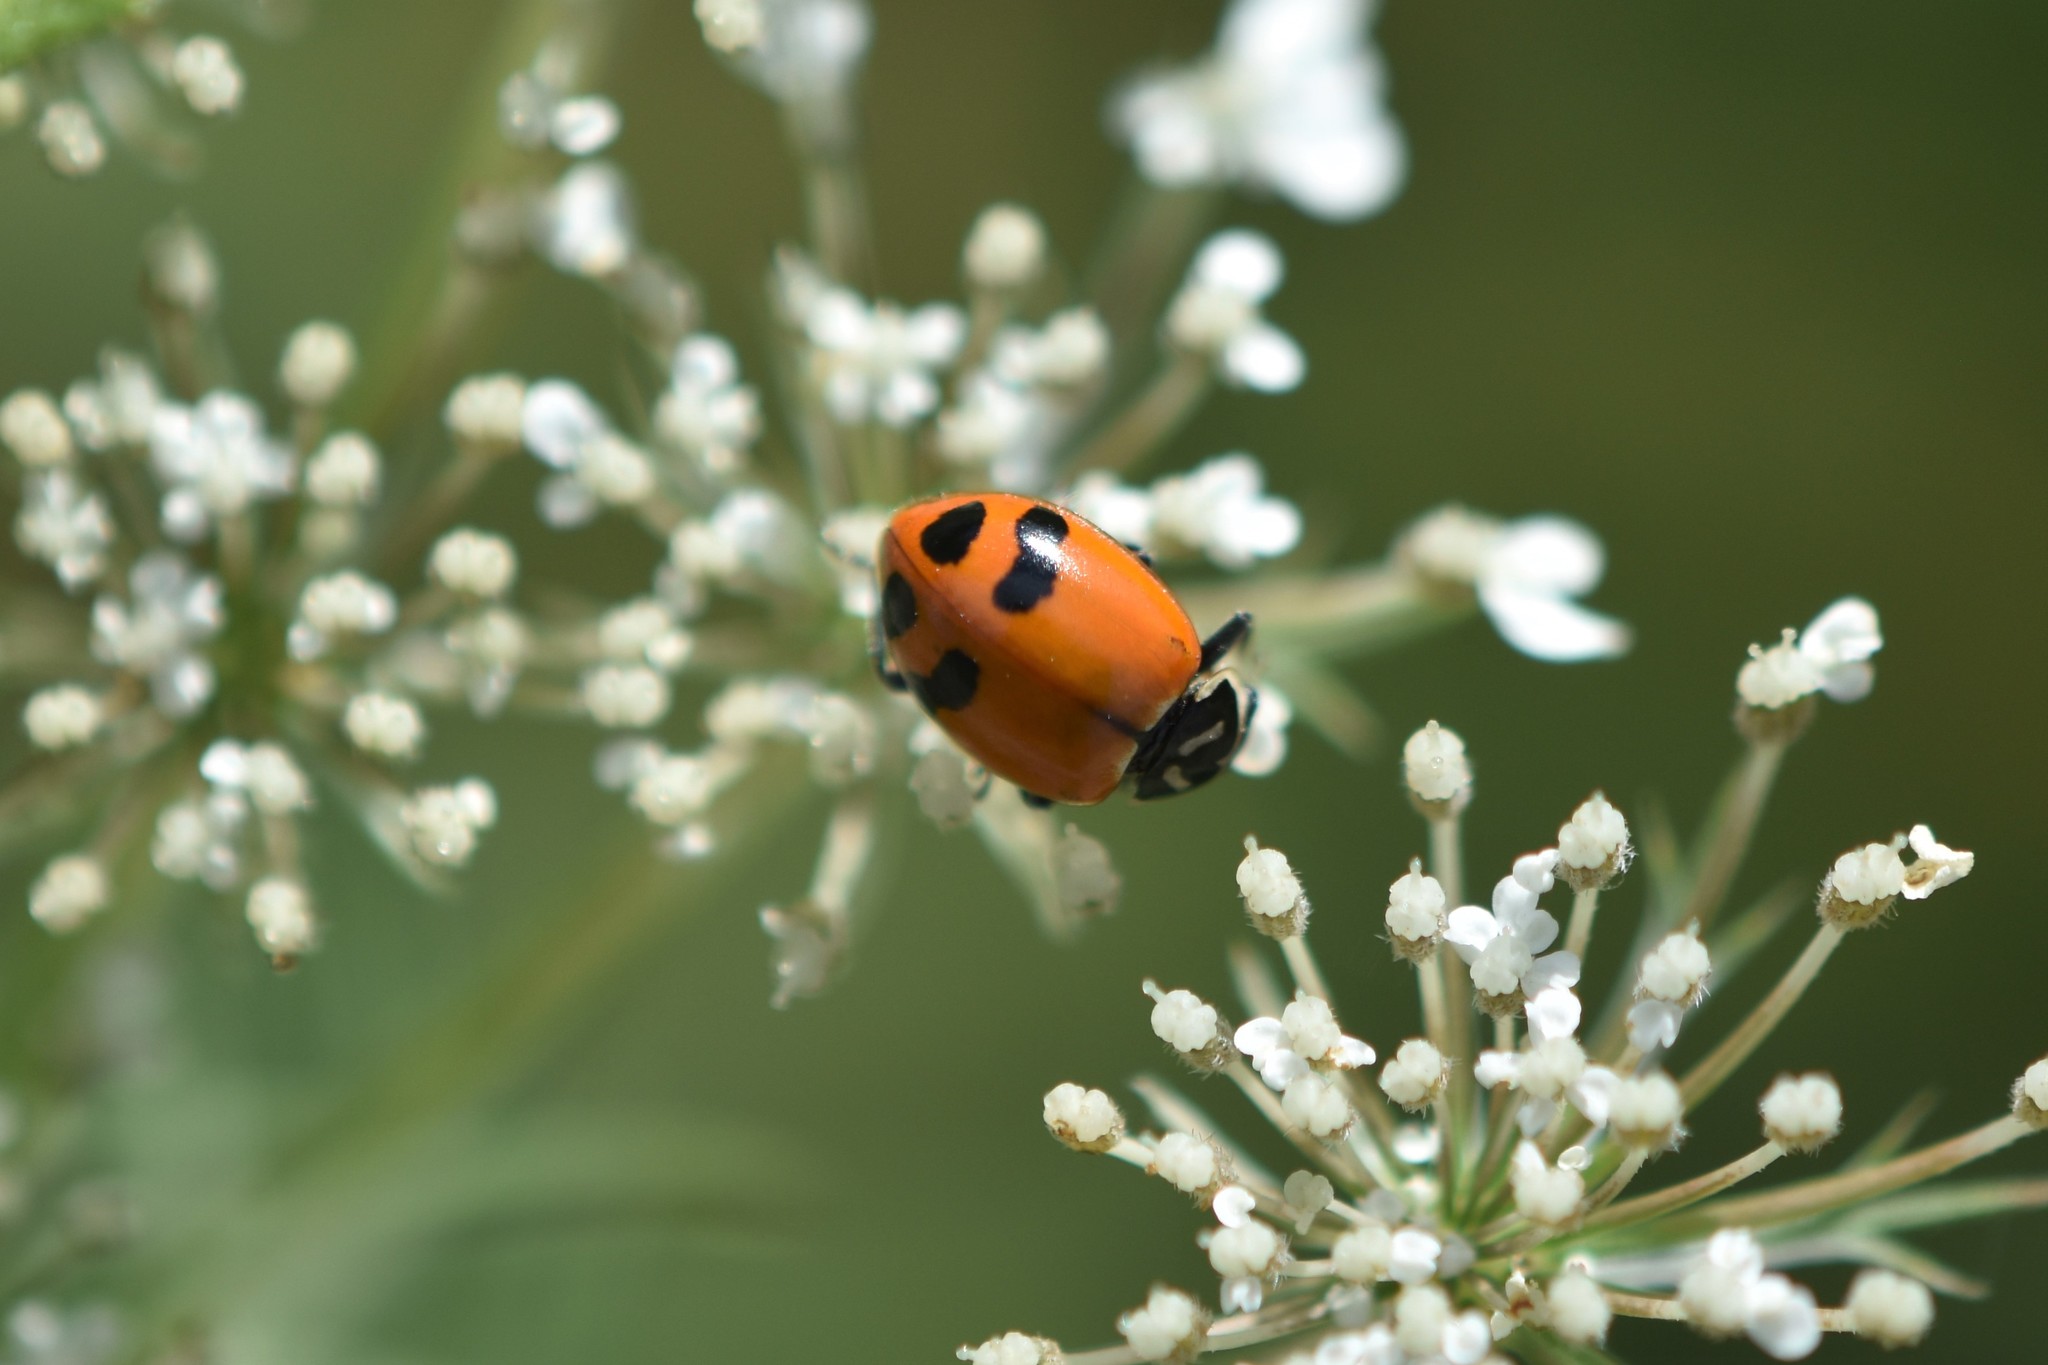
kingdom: Animalia
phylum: Arthropoda
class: Insecta
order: Coleoptera
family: Coccinellidae
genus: Hippodamia
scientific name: Hippodamia glacialis
